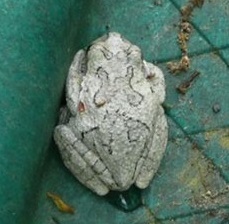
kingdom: Animalia
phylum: Chordata
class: Amphibia
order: Anura
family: Hylidae
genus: Dryophytes
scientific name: Dryophytes chrysoscelis
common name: Cope's gray treefrog
